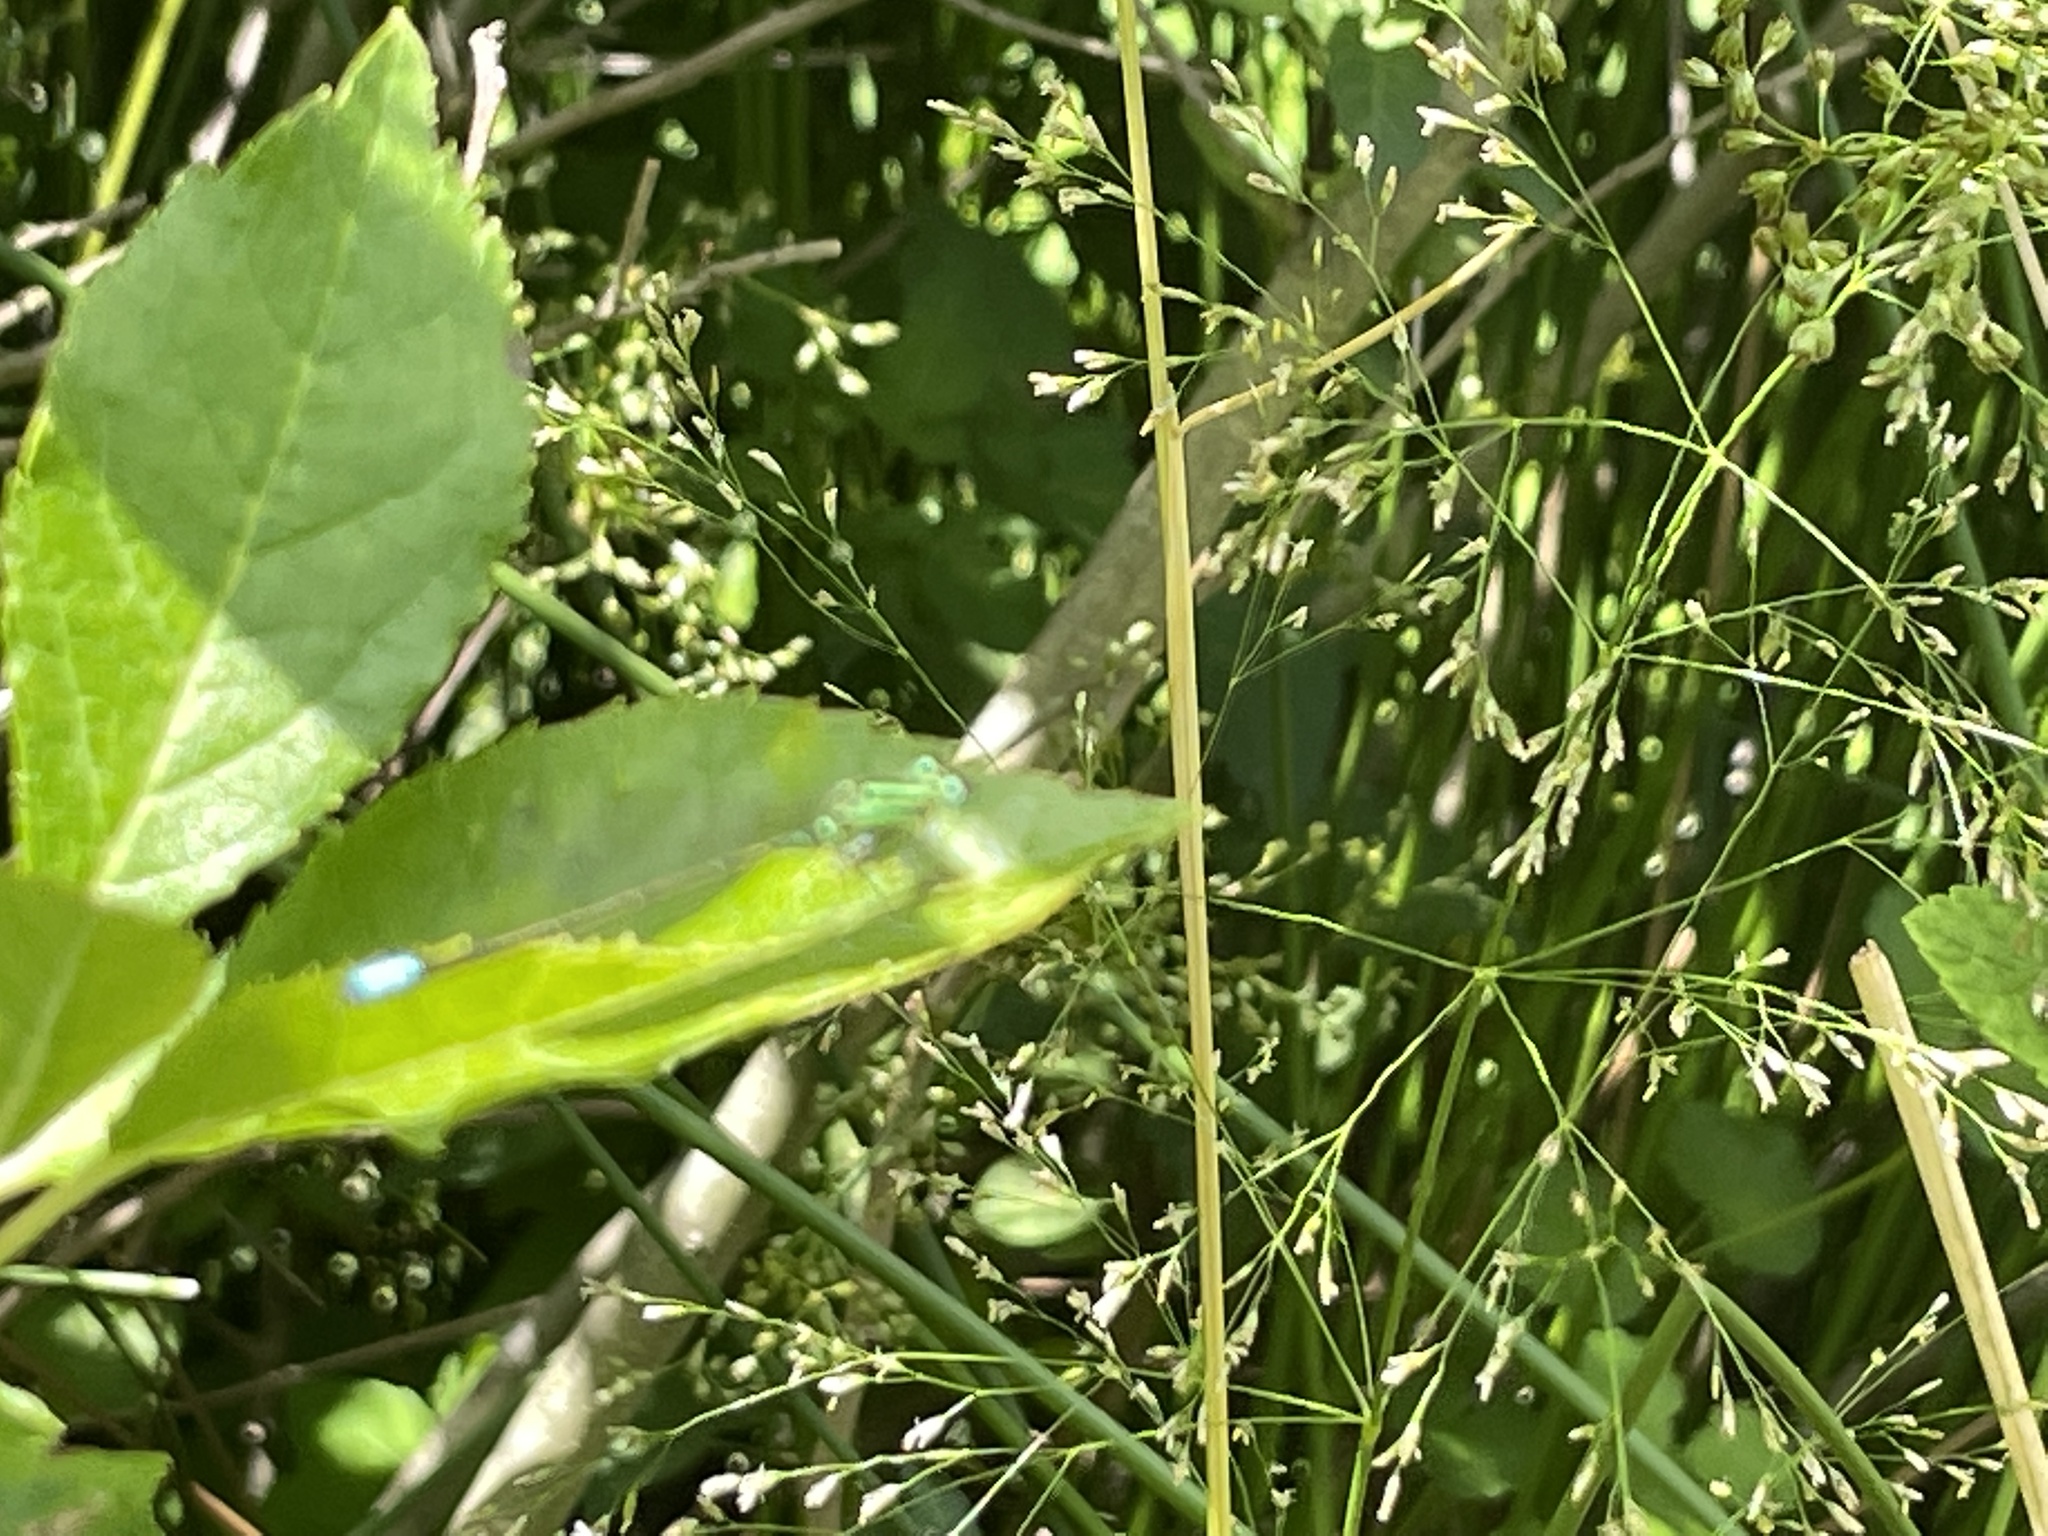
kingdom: Animalia
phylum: Arthropoda
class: Insecta
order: Odonata
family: Coenagrionidae
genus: Ischnura
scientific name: Ischnura verticalis
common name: Eastern forktail
